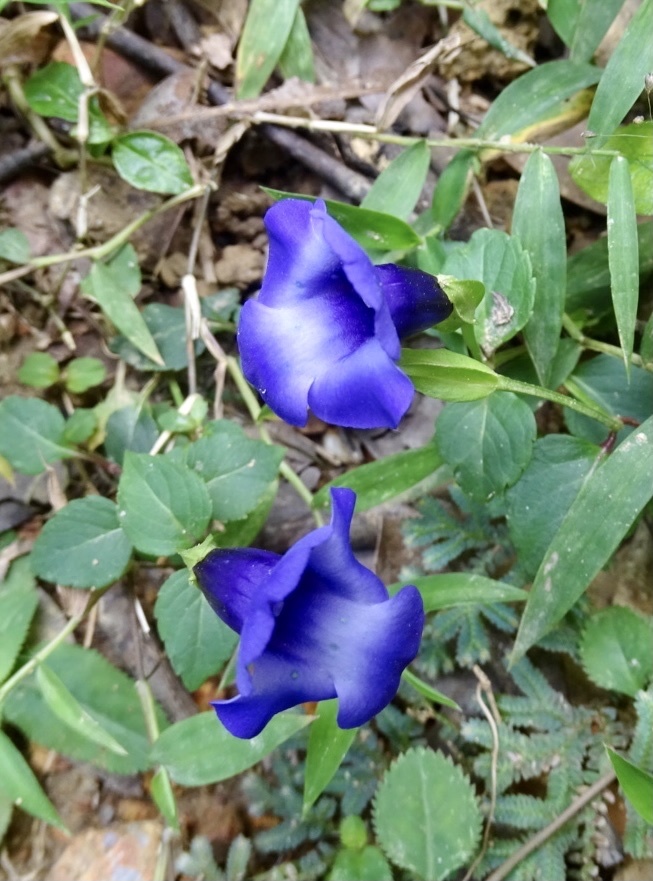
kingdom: Plantae
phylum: Tracheophyta
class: Magnoliopsida
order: Lamiales
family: Linderniaceae
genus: Torenia
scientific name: Torenia concolor
